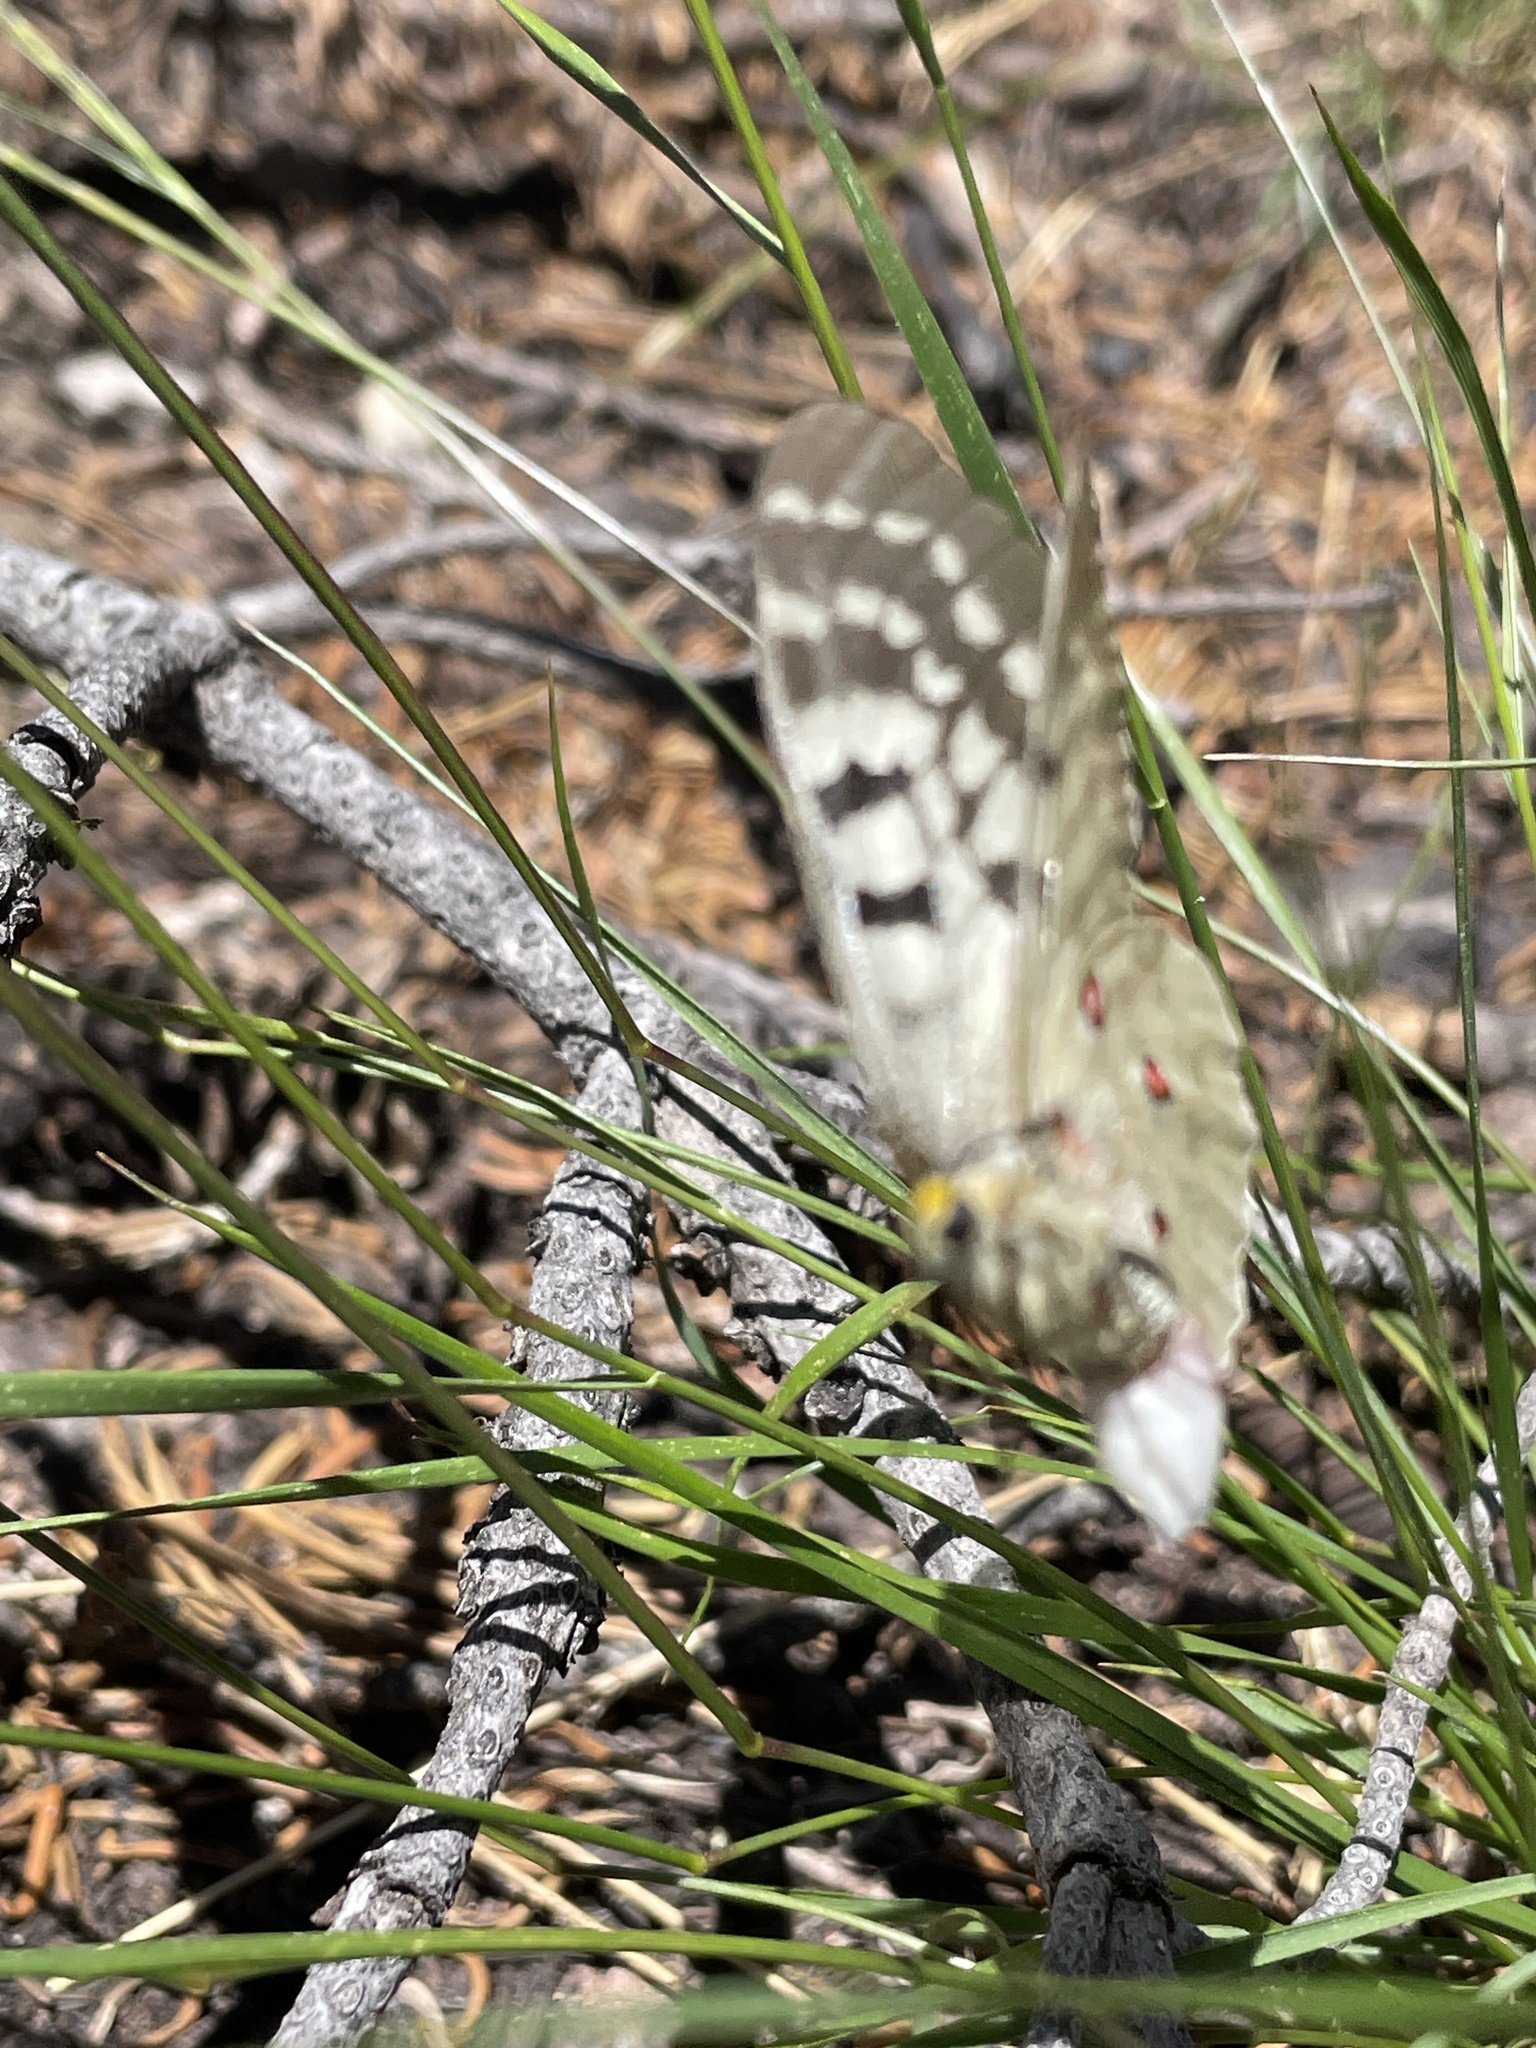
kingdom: Animalia
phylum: Arthropoda
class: Insecta
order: Lepidoptera
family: Papilionidae
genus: Parnassius
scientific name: Parnassius clodius
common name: American apollo
